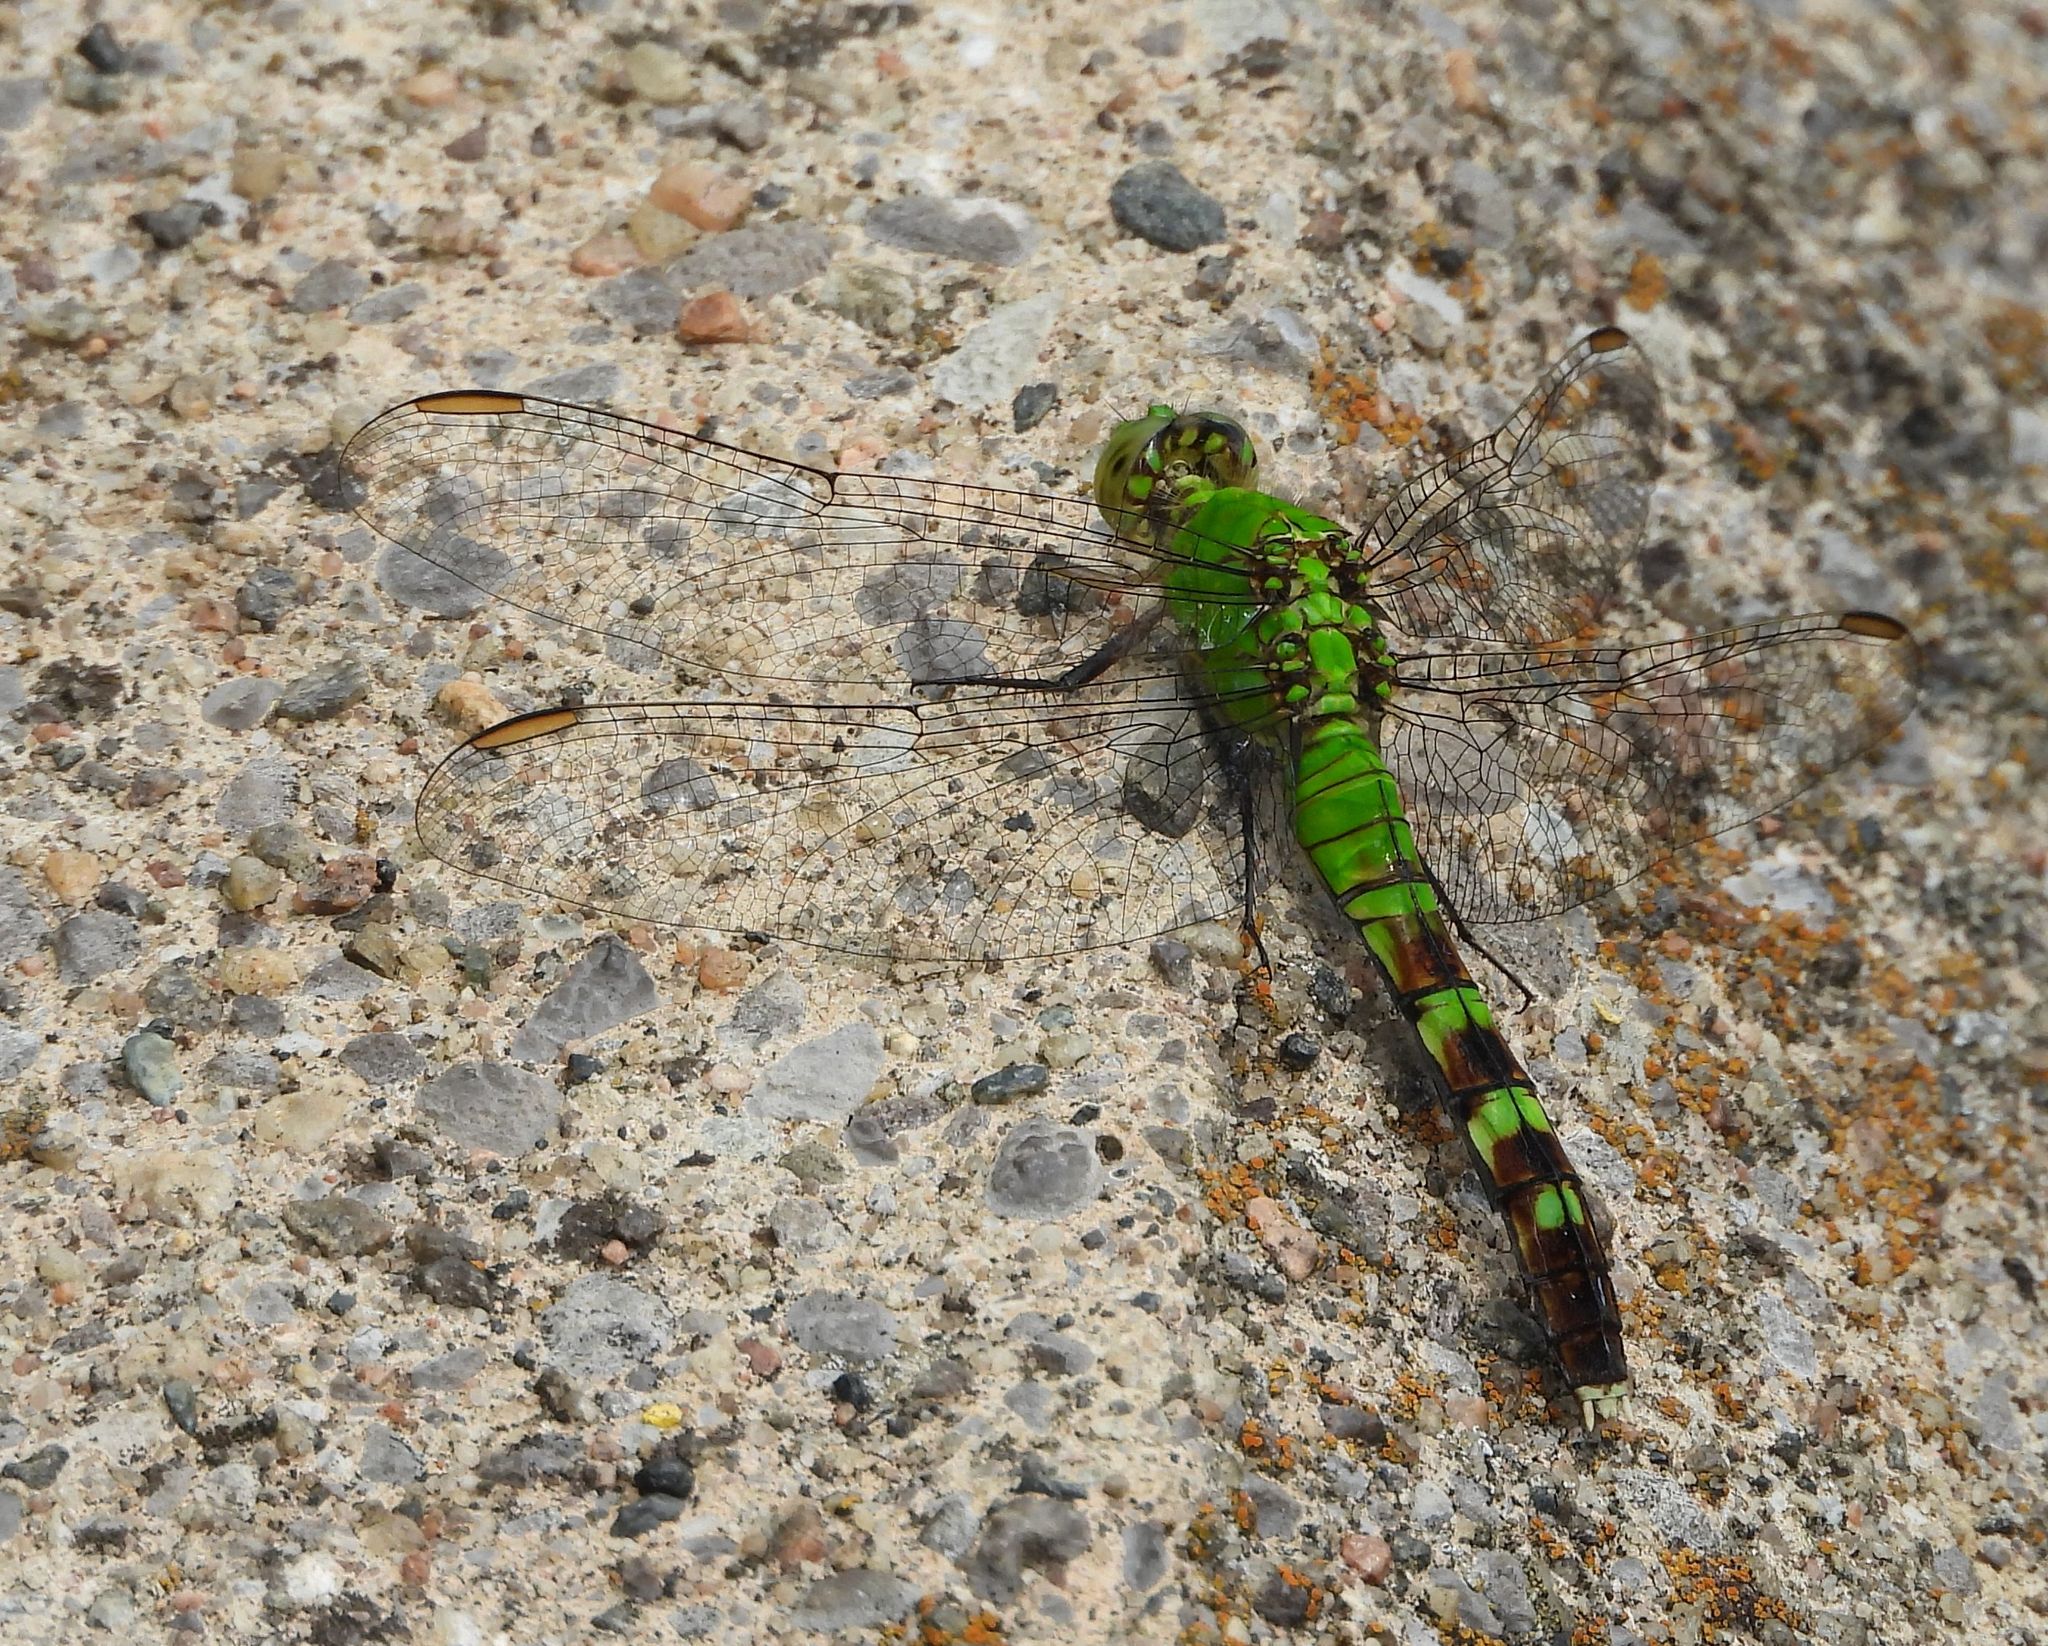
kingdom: Animalia
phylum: Arthropoda
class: Insecta
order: Odonata
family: Libellulidae
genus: Erythemis
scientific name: Erythemis simplicicollis
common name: Eastern pondhawk
